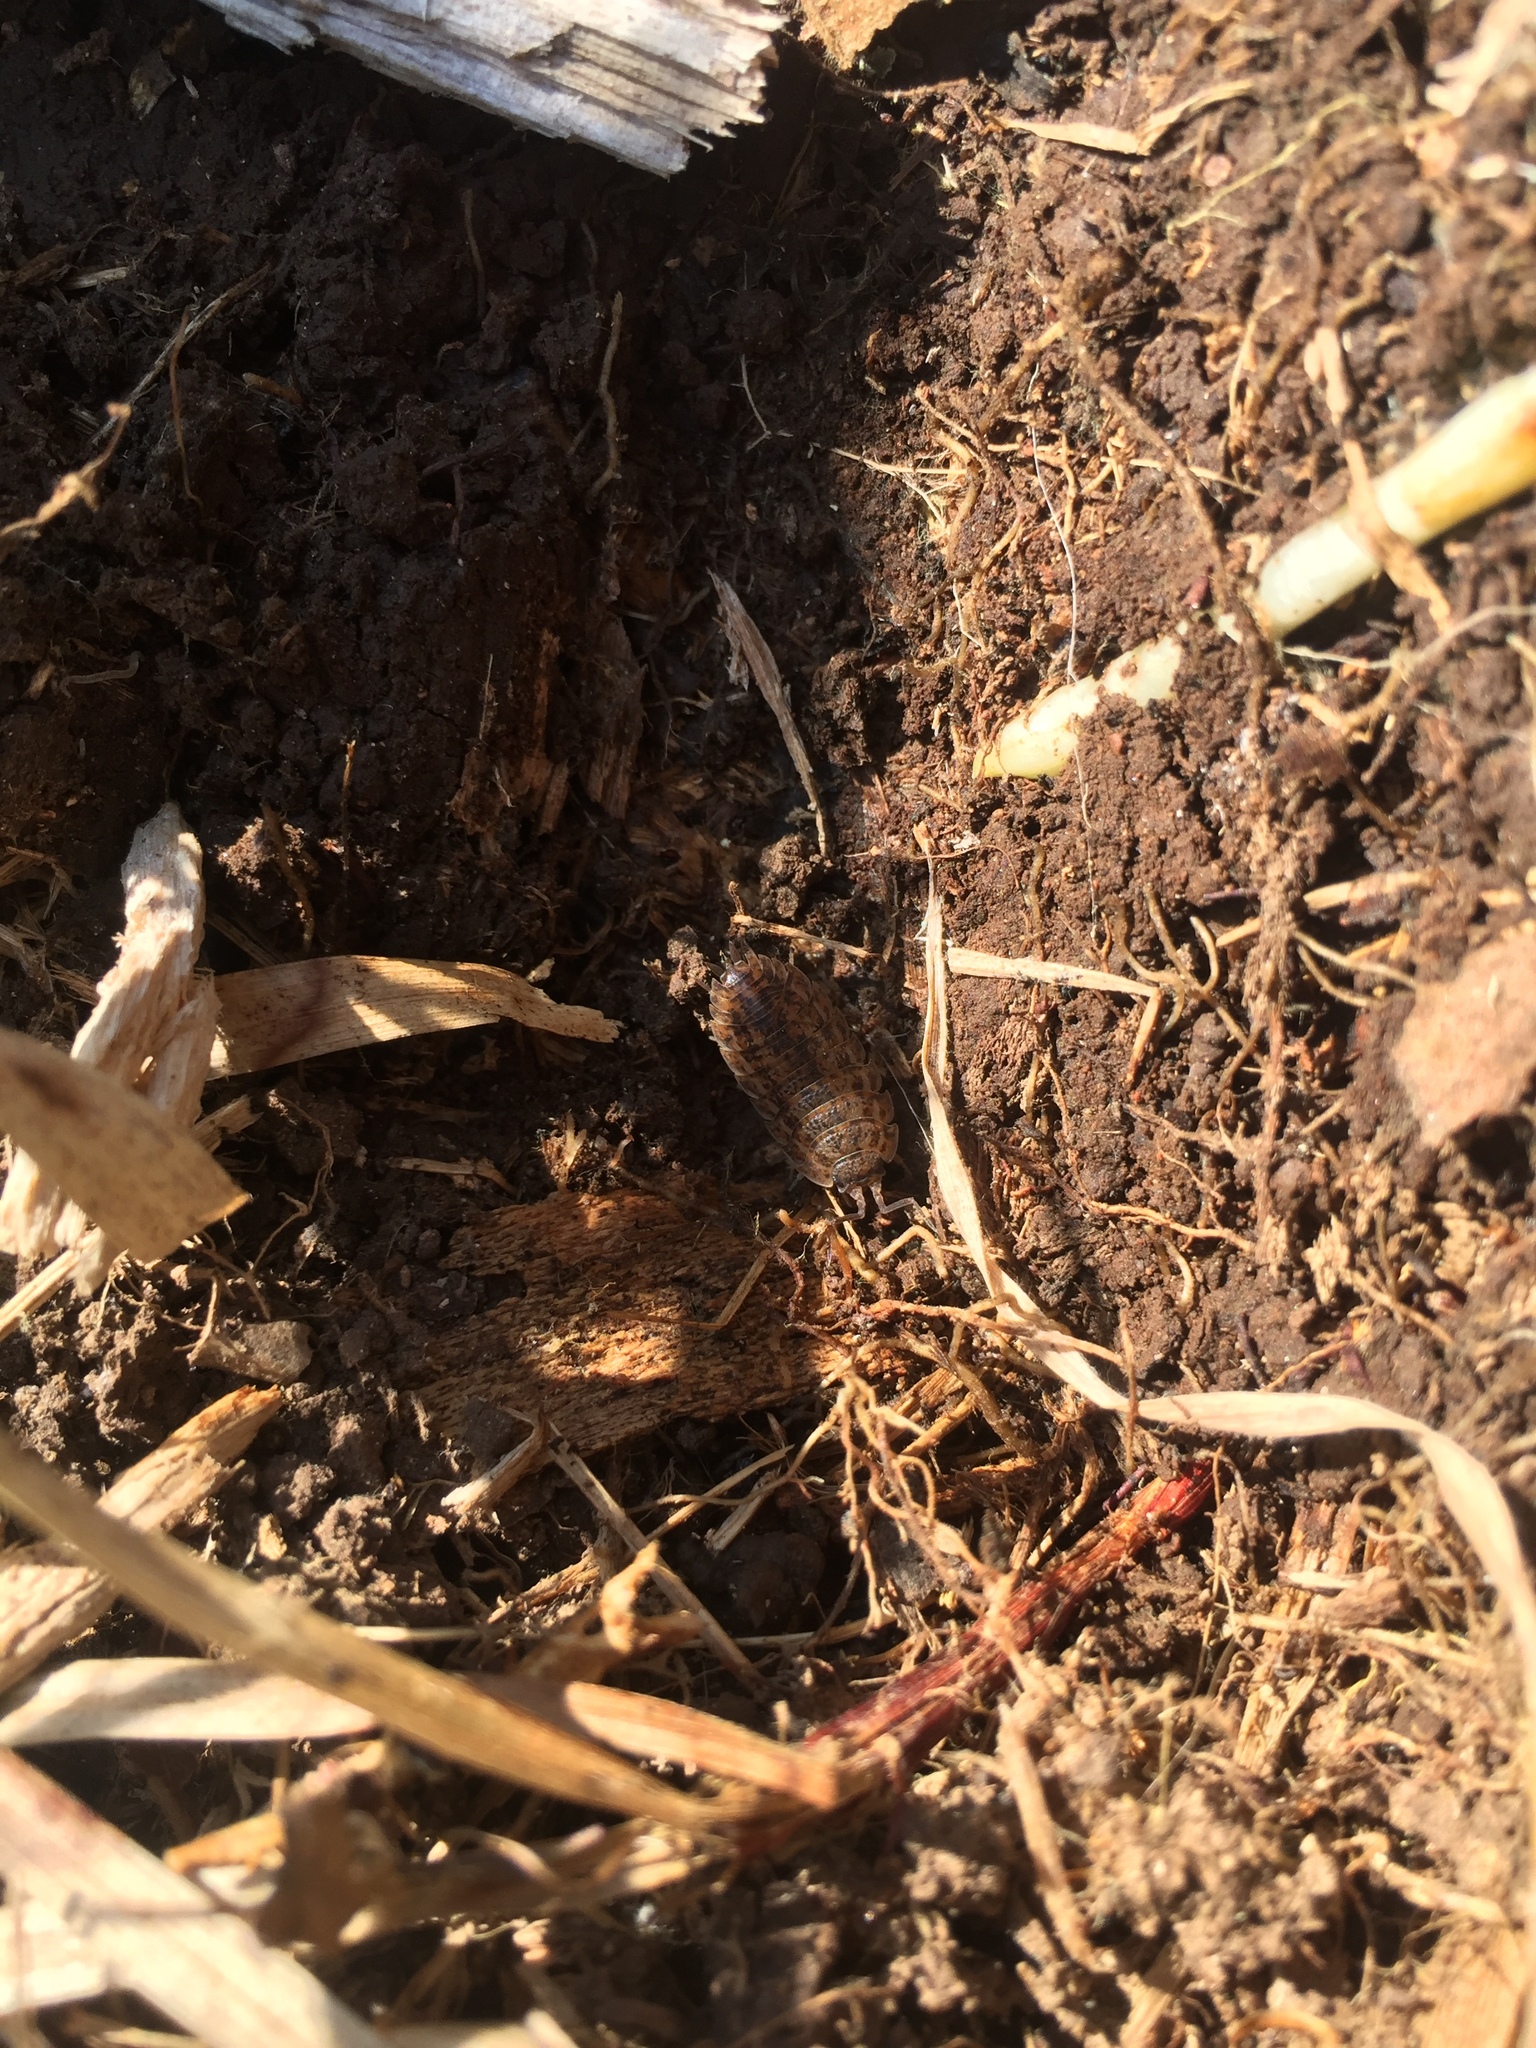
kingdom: Animalia
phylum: Arthropoda
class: Malacostraca
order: Isopoda
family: Trachelipodidae
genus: Trachelipus
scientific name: Trachelipus rathkii
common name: Isopod
